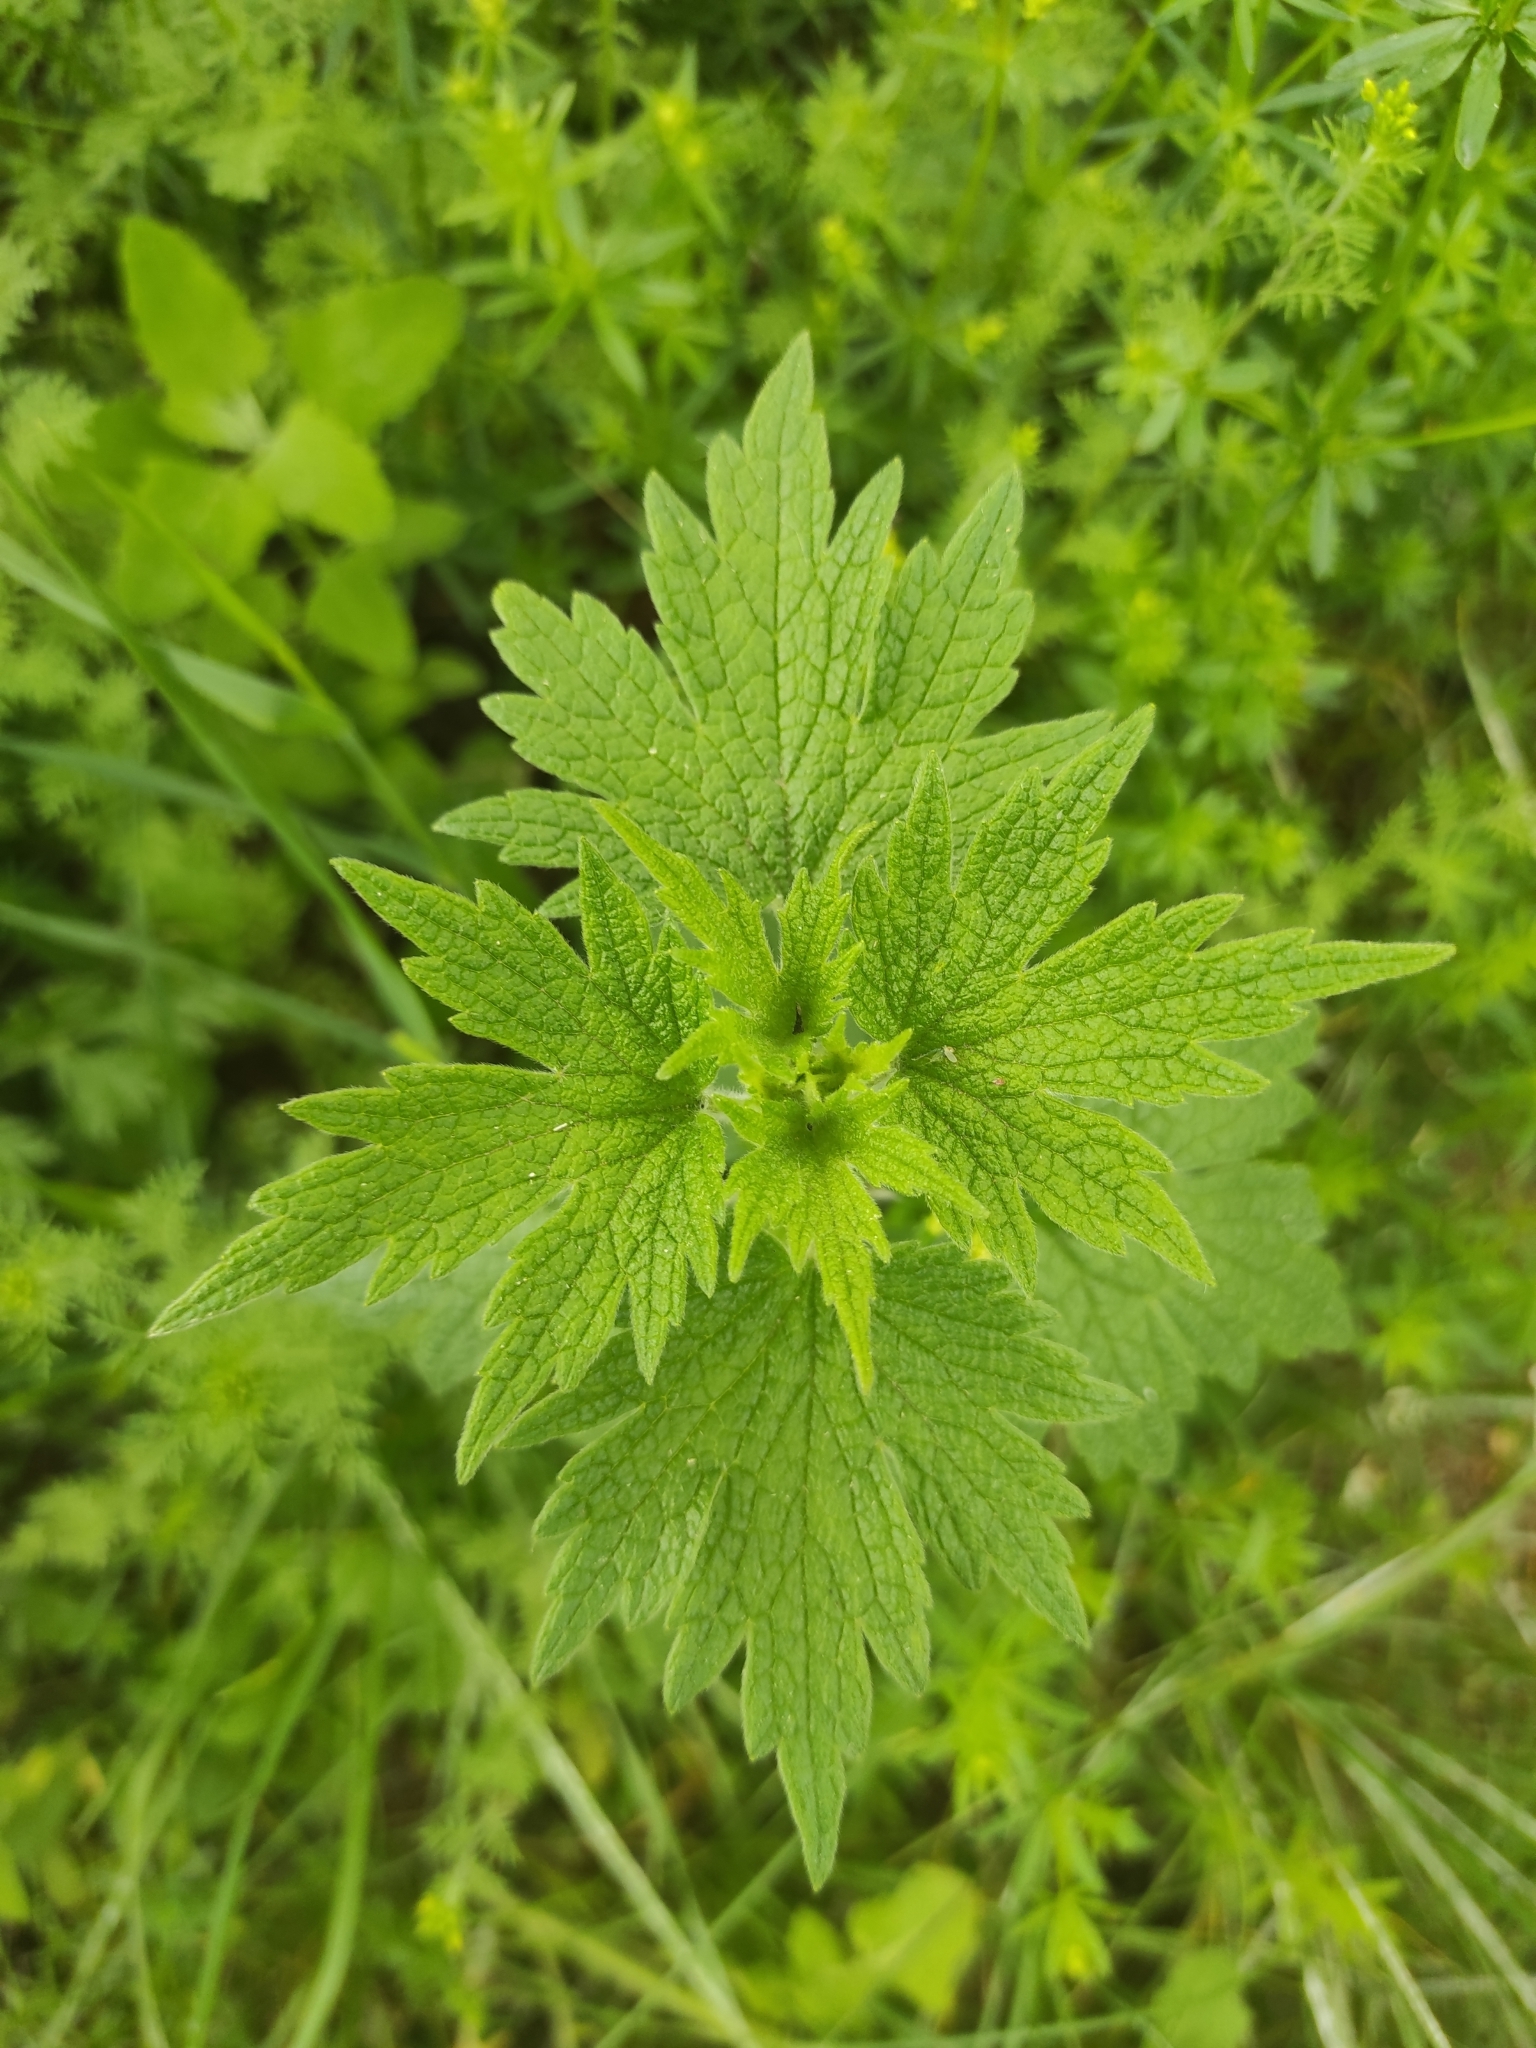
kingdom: Plantae
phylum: Tracheophyta
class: Magnoliopsida
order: Lamiales
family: Lamiaceae
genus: Leonurus
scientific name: Leonurus quinquelobatus
